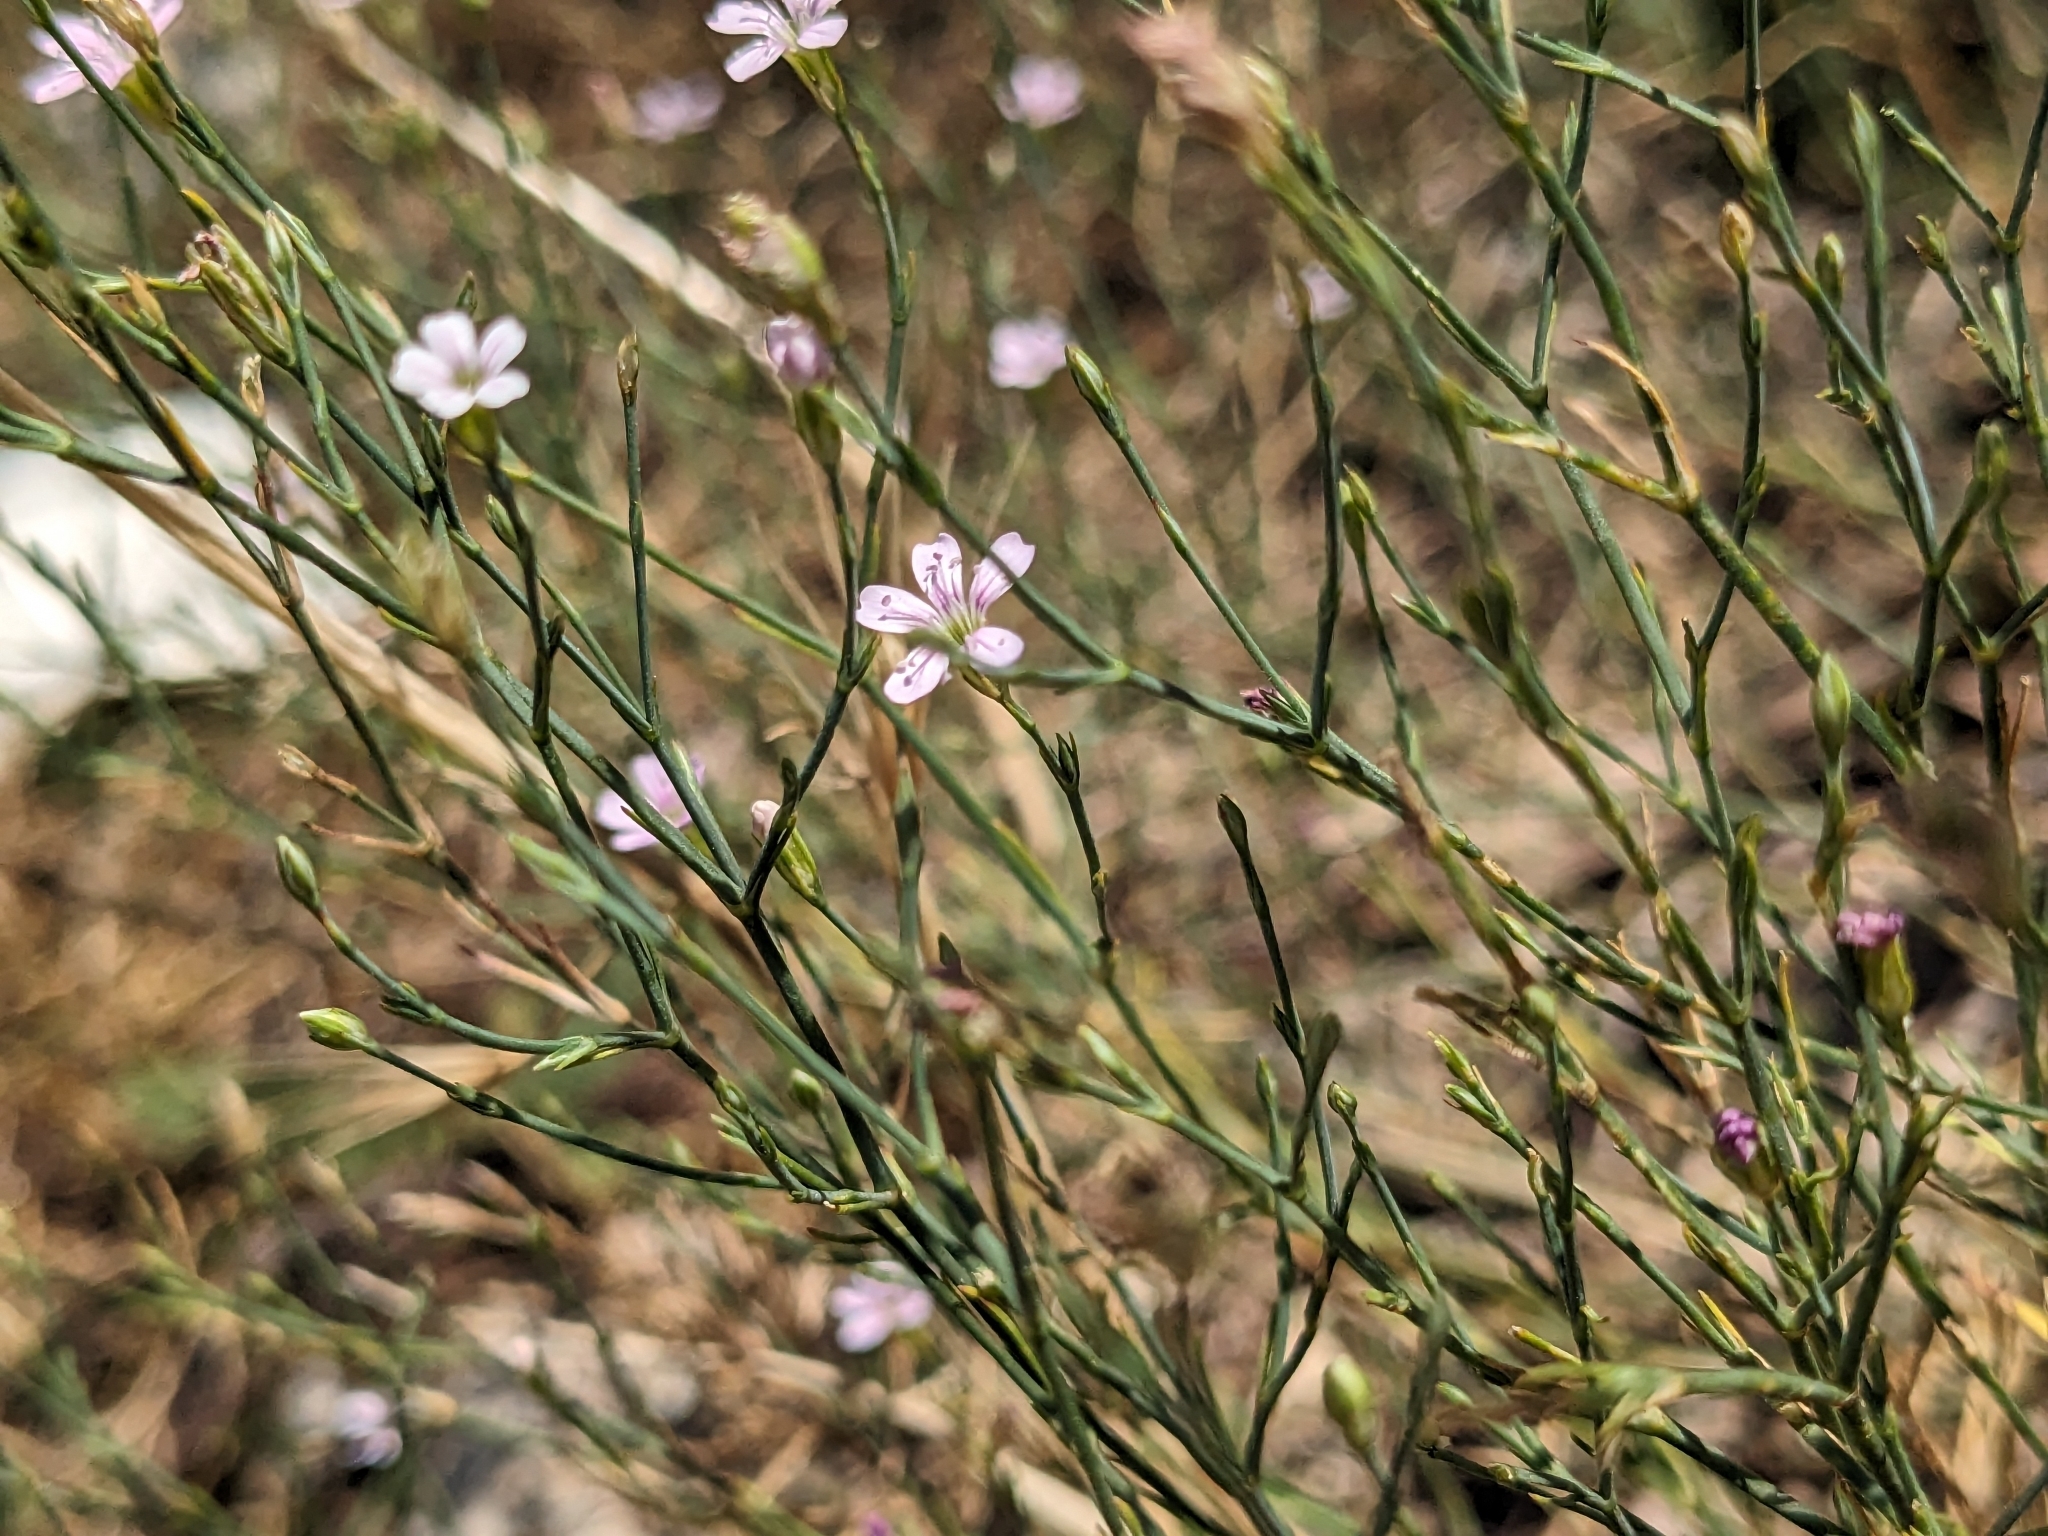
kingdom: Plantae
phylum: Tracheophyta
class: Magnoliopsida
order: Caryophyllales
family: Caryophyllaceae
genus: Petrorhagia
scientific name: Petrorhagia saxifraga
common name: Tunicflower
